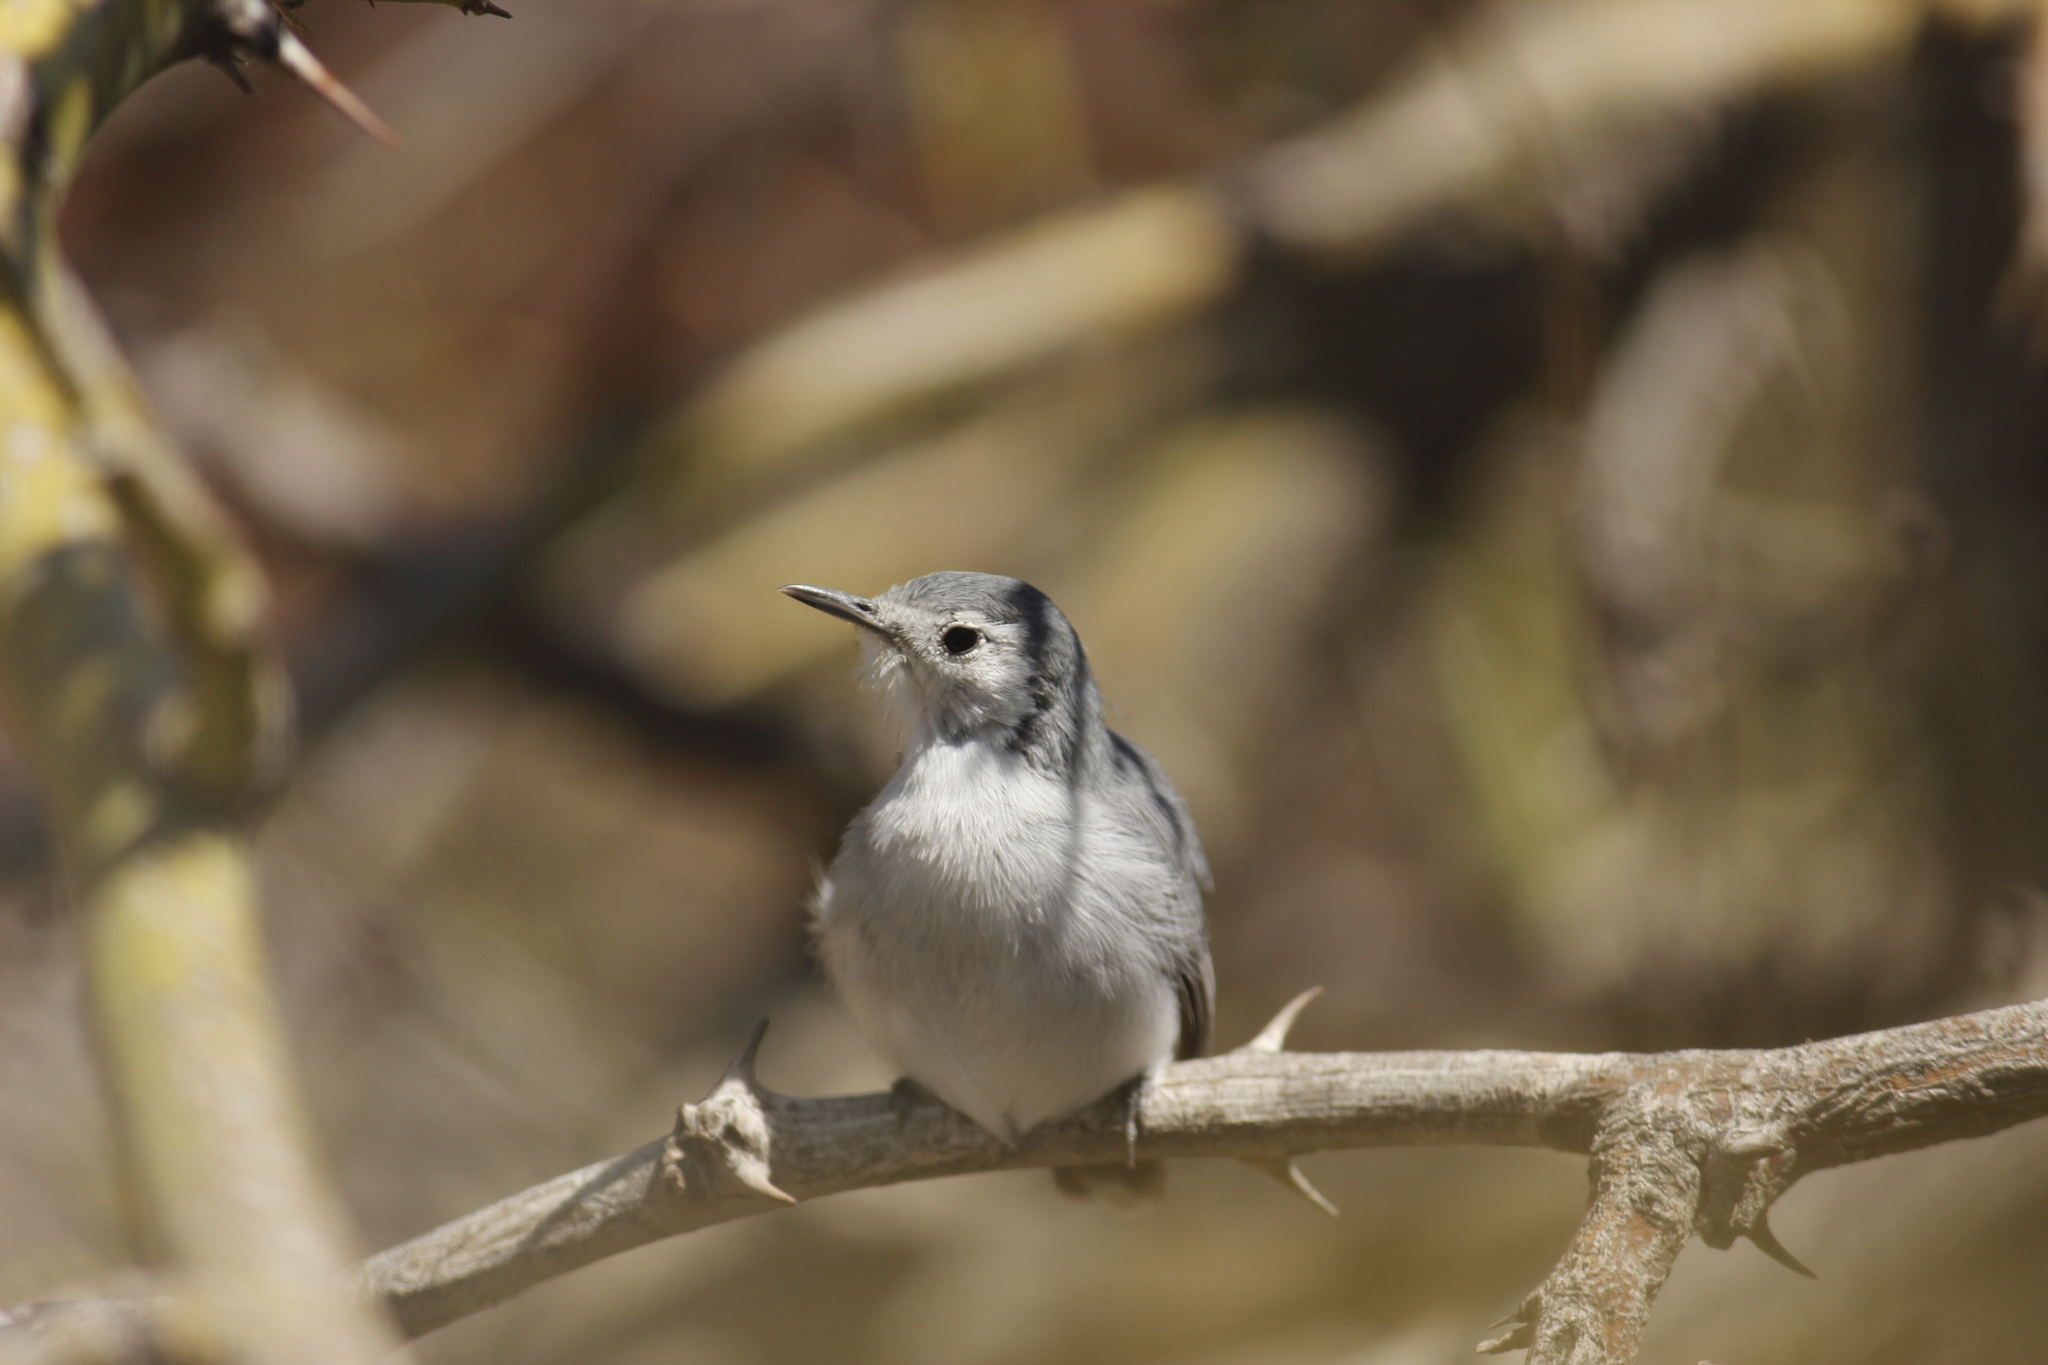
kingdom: Animalia
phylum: Chordata
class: Aves
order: Passeriformes
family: Polioptilidae
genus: Polioptila
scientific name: Polioptila plumbea
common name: Tropical gnatcatcher
